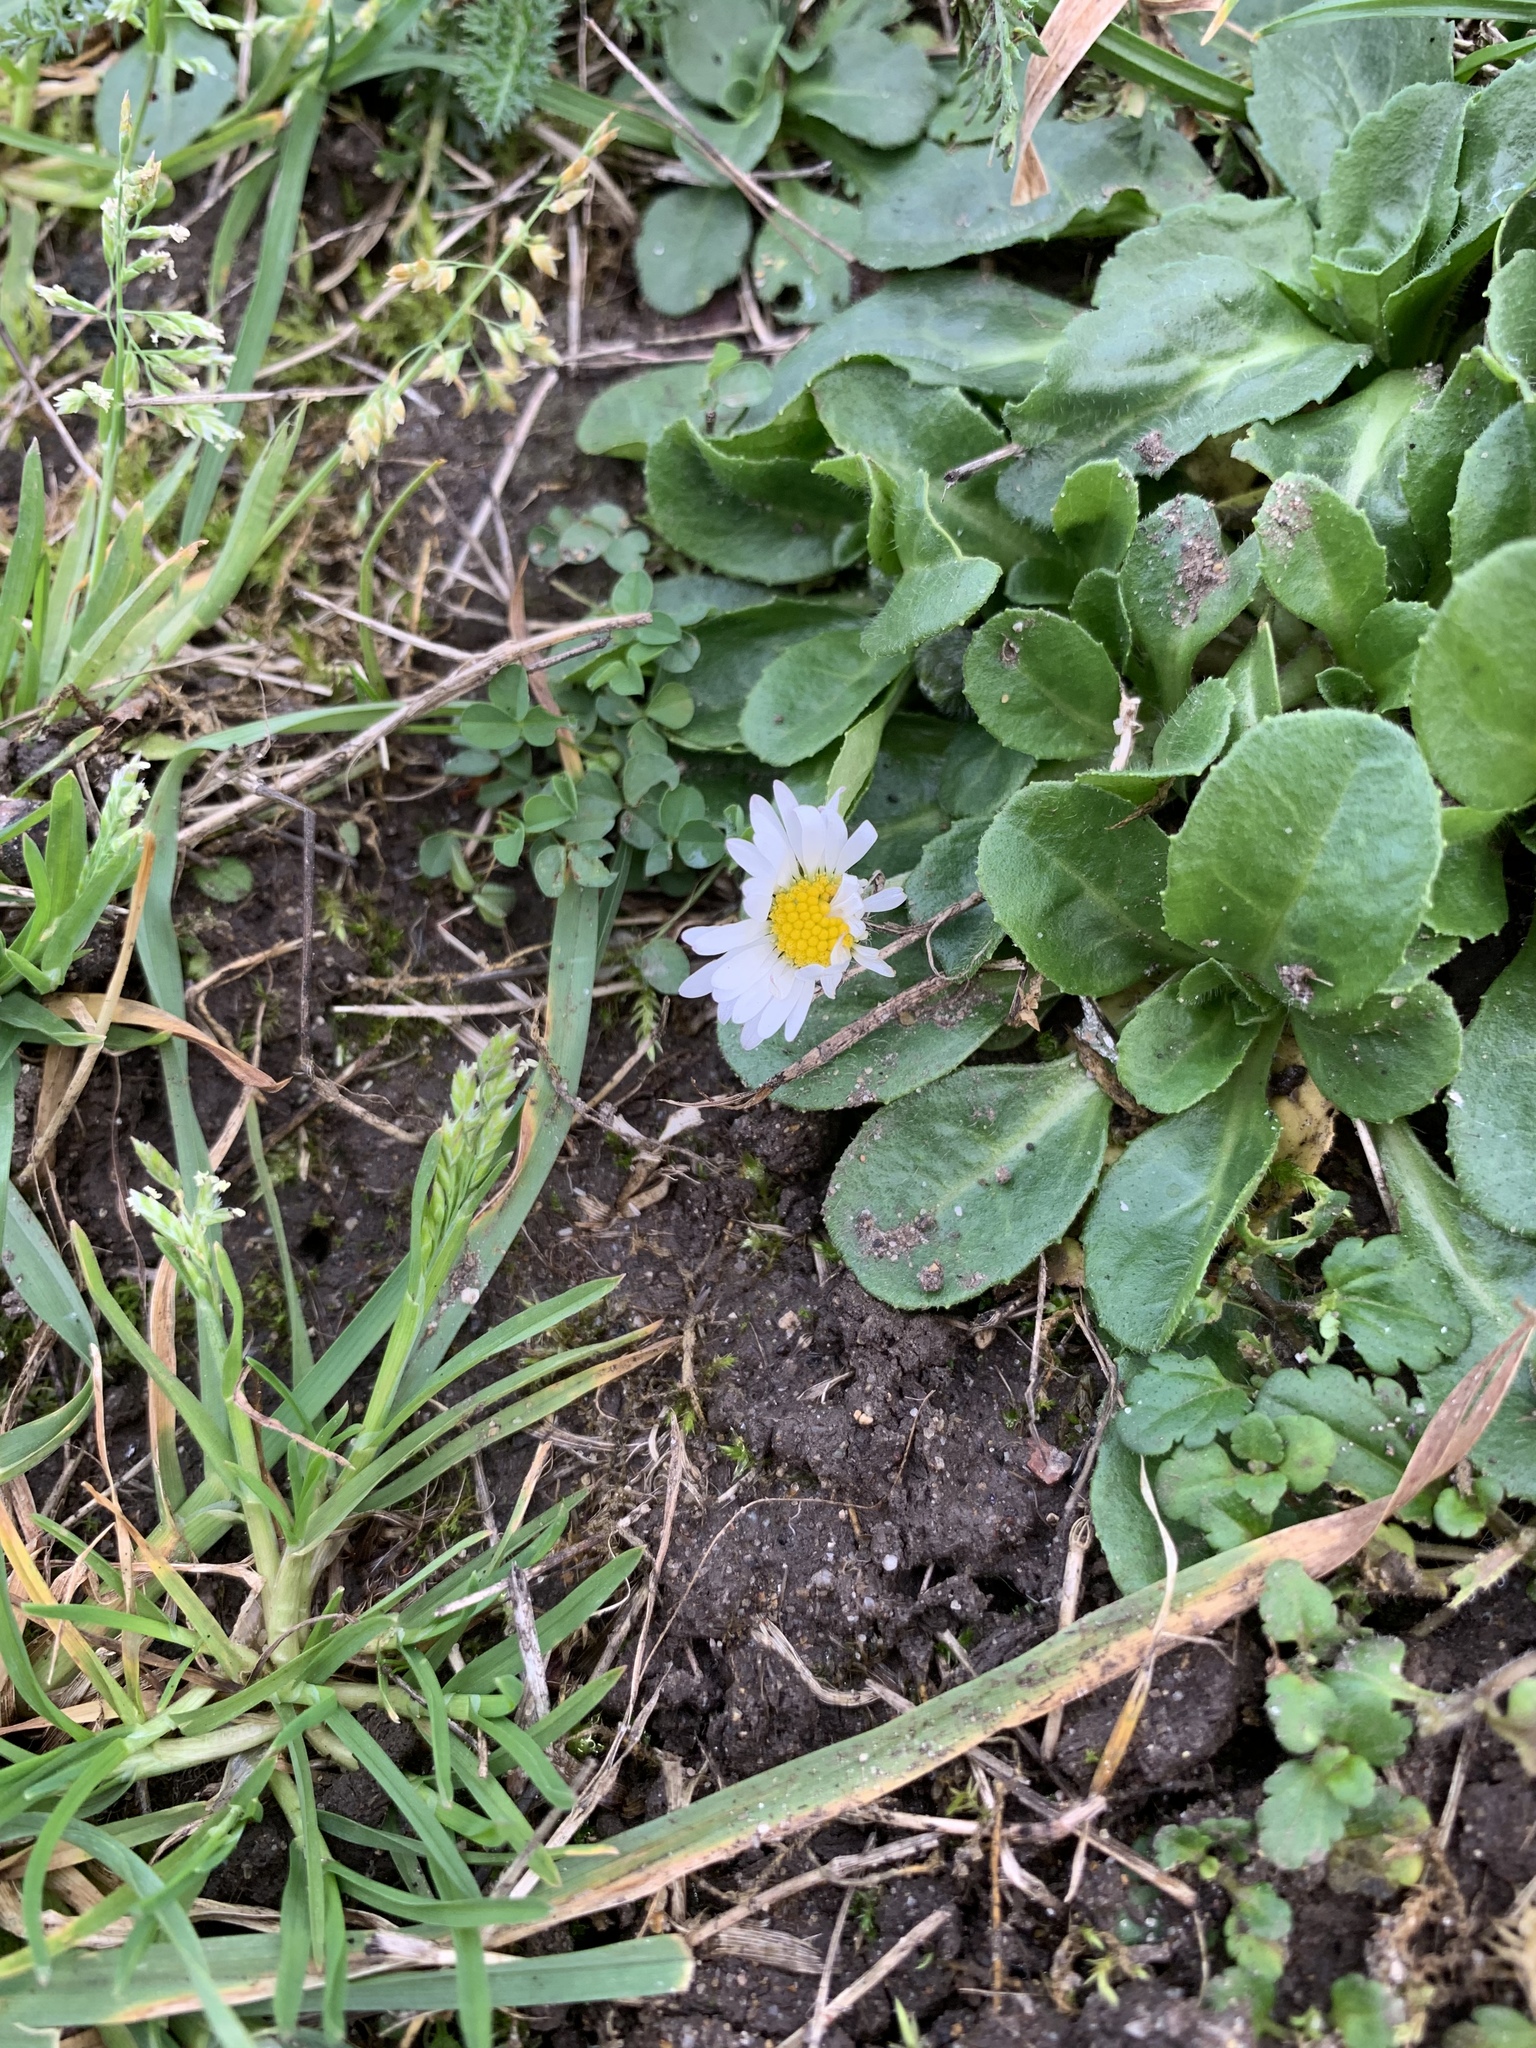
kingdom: Plantae
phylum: Tracheophyta
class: Magnoliopsida
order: Asterales
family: Asteraceae
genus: Bellis
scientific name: Bellis perennis
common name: Lawndaisy
